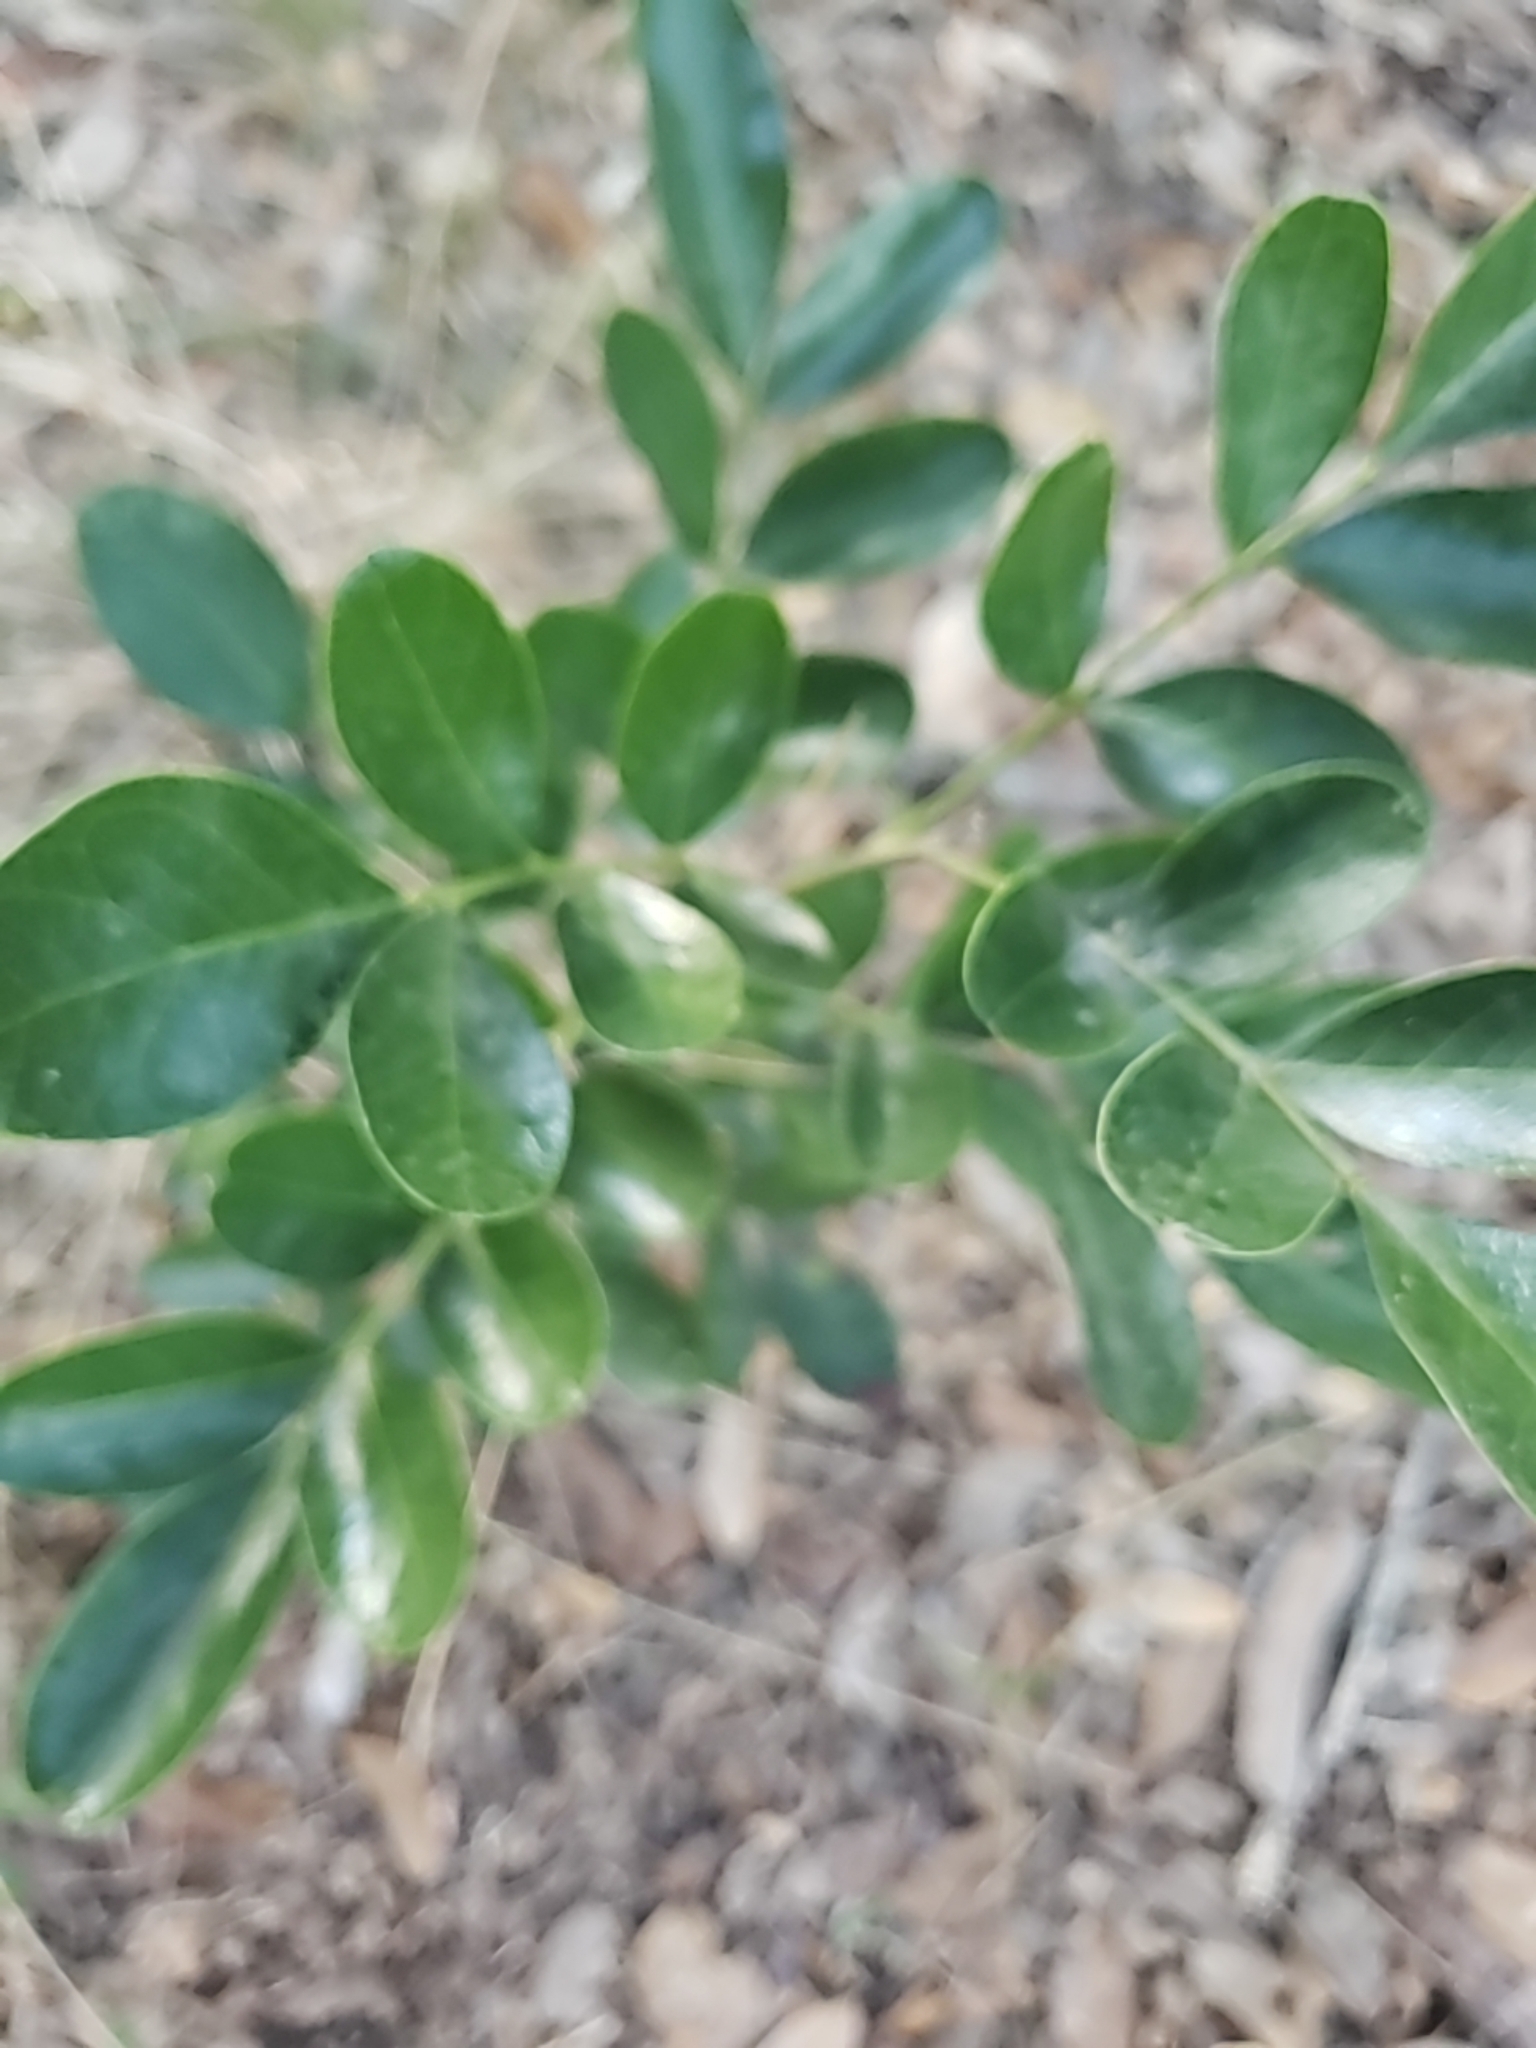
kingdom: Plantae
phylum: Tracheophyta
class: Magnoliopsida
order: Fabales
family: Fabaceae
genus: Dermatophyllum
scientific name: Dermatophyllum secundiflorum
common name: Texas-mountain-laurel
